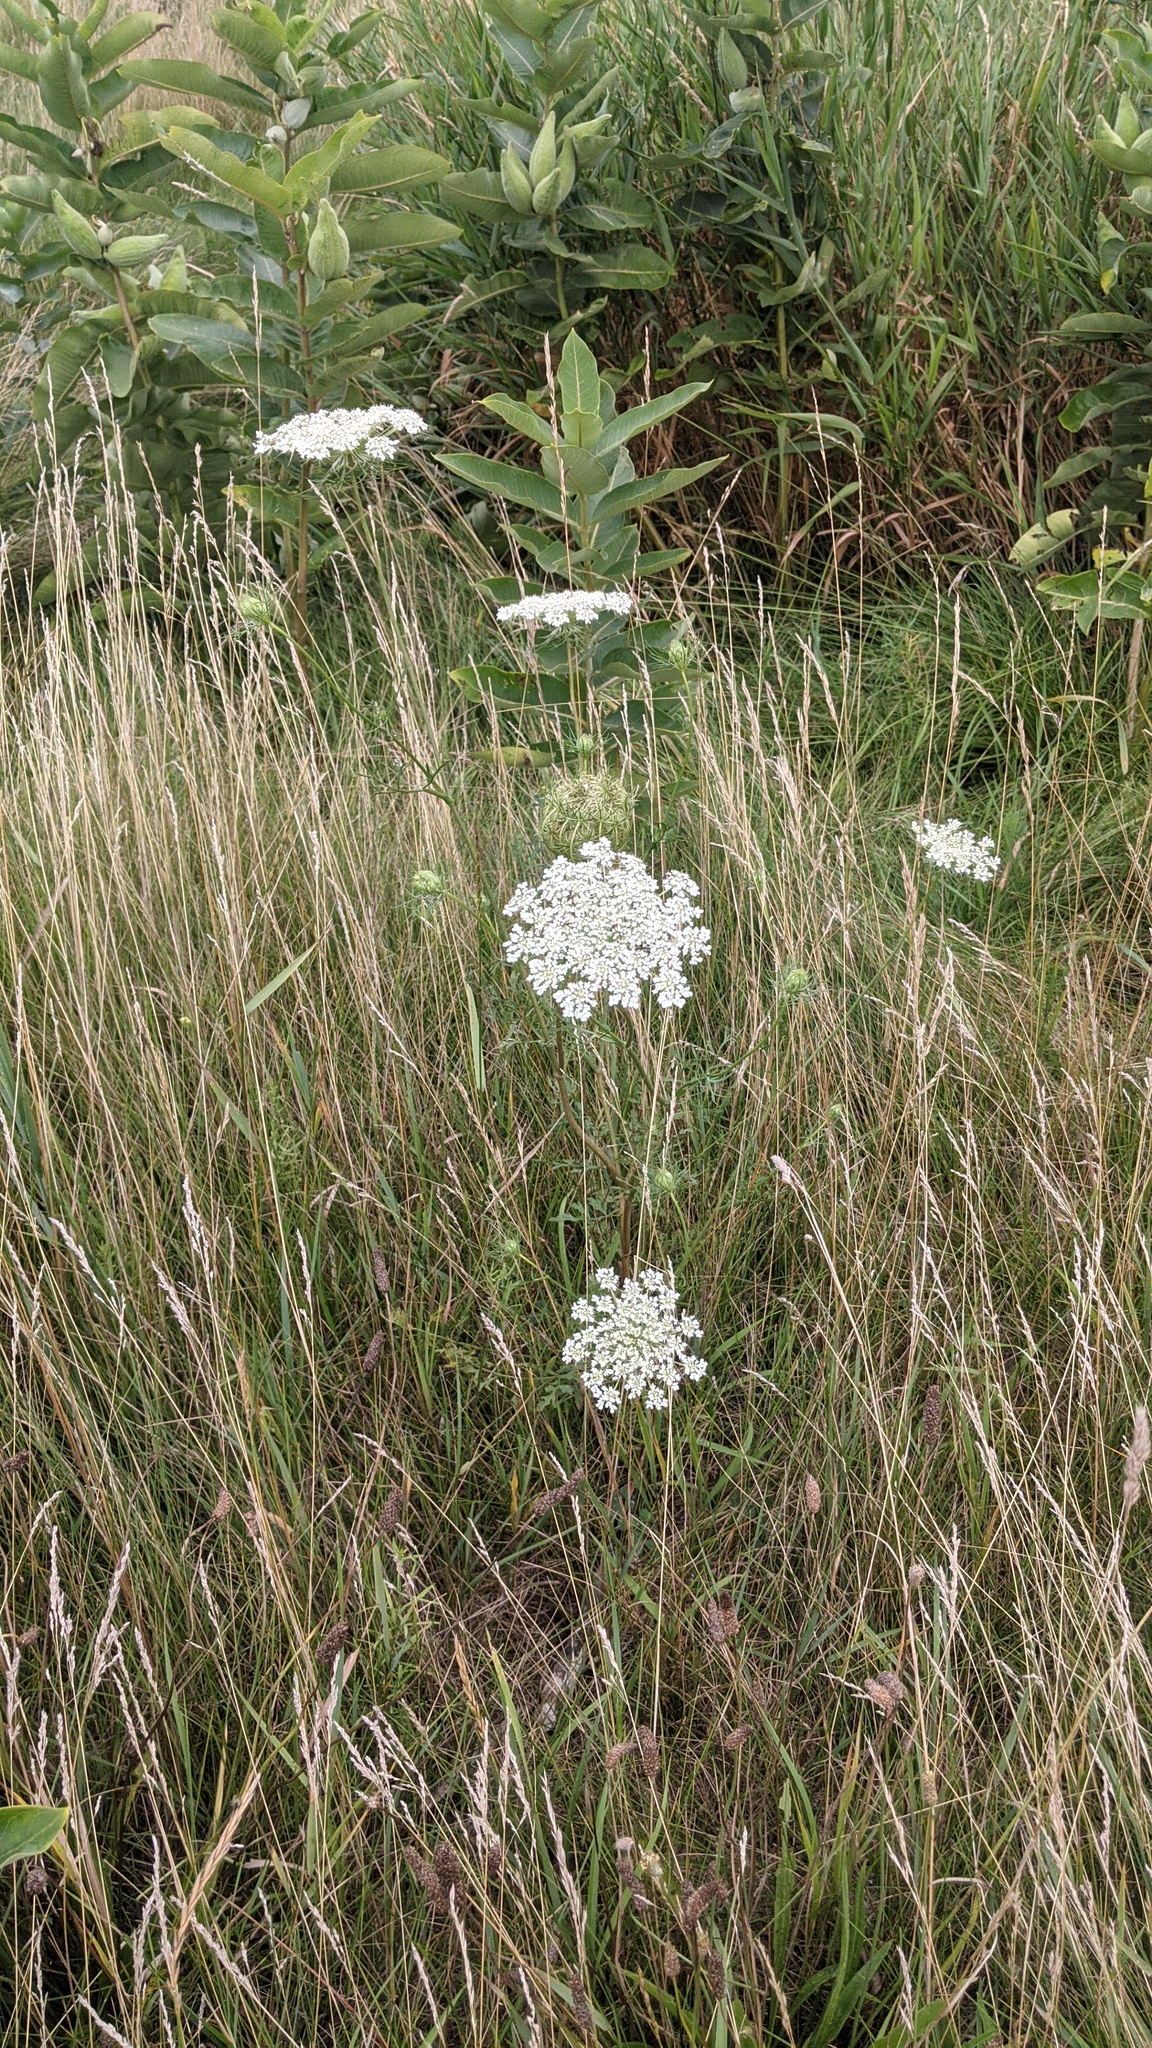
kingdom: Plantae
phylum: Tracheophyta
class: Magnoliopsida
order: Apiales
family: Apiaceae
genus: Daucus
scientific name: Daucus carota
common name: Wild carrot
